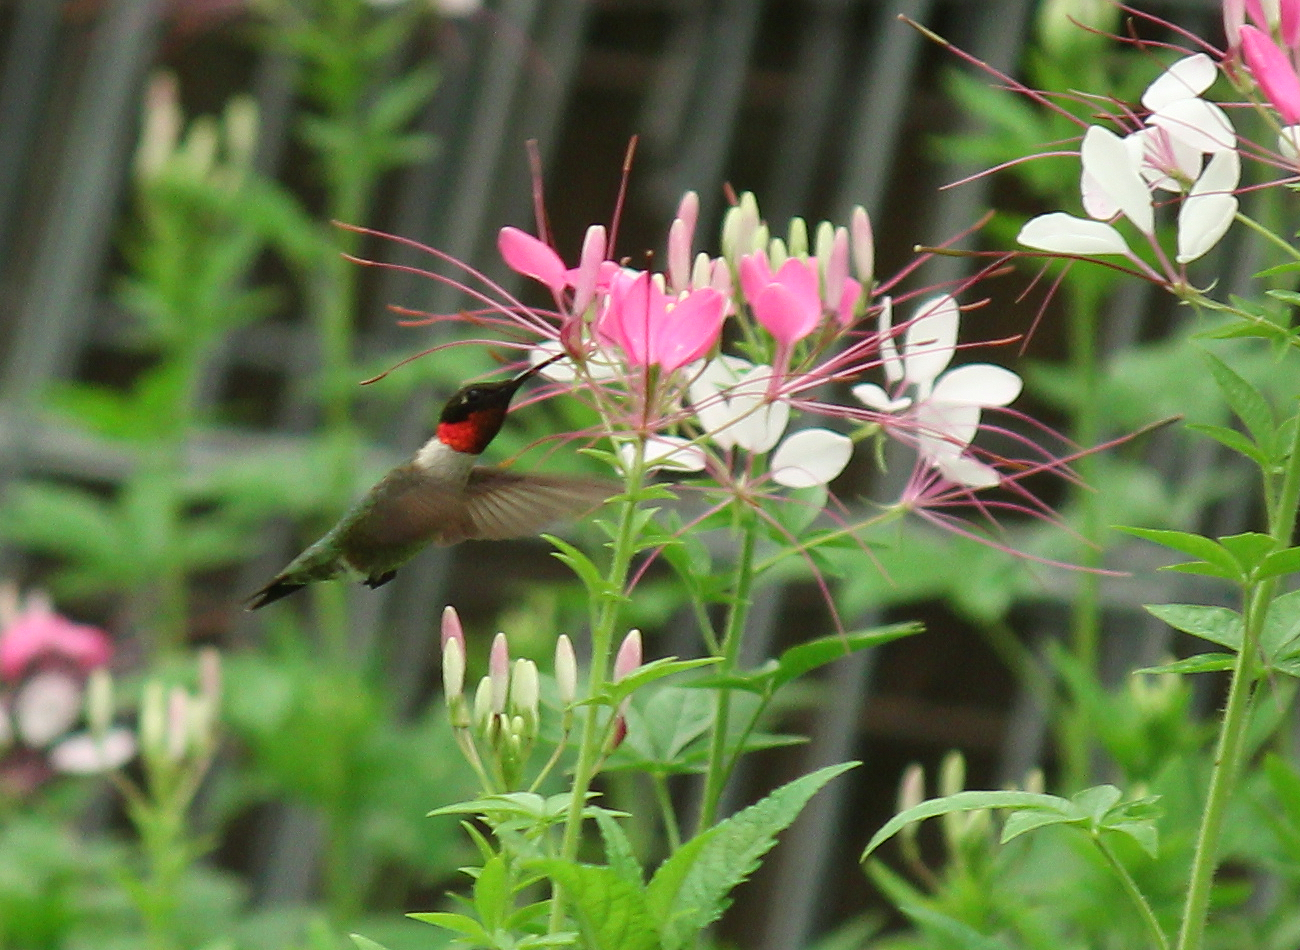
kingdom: Animalia
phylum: Chordata
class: Aves
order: Apodiformes
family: Trochilidae
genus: Archilochus
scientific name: Archilochus colubris
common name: Ruby-throated hummingbird
